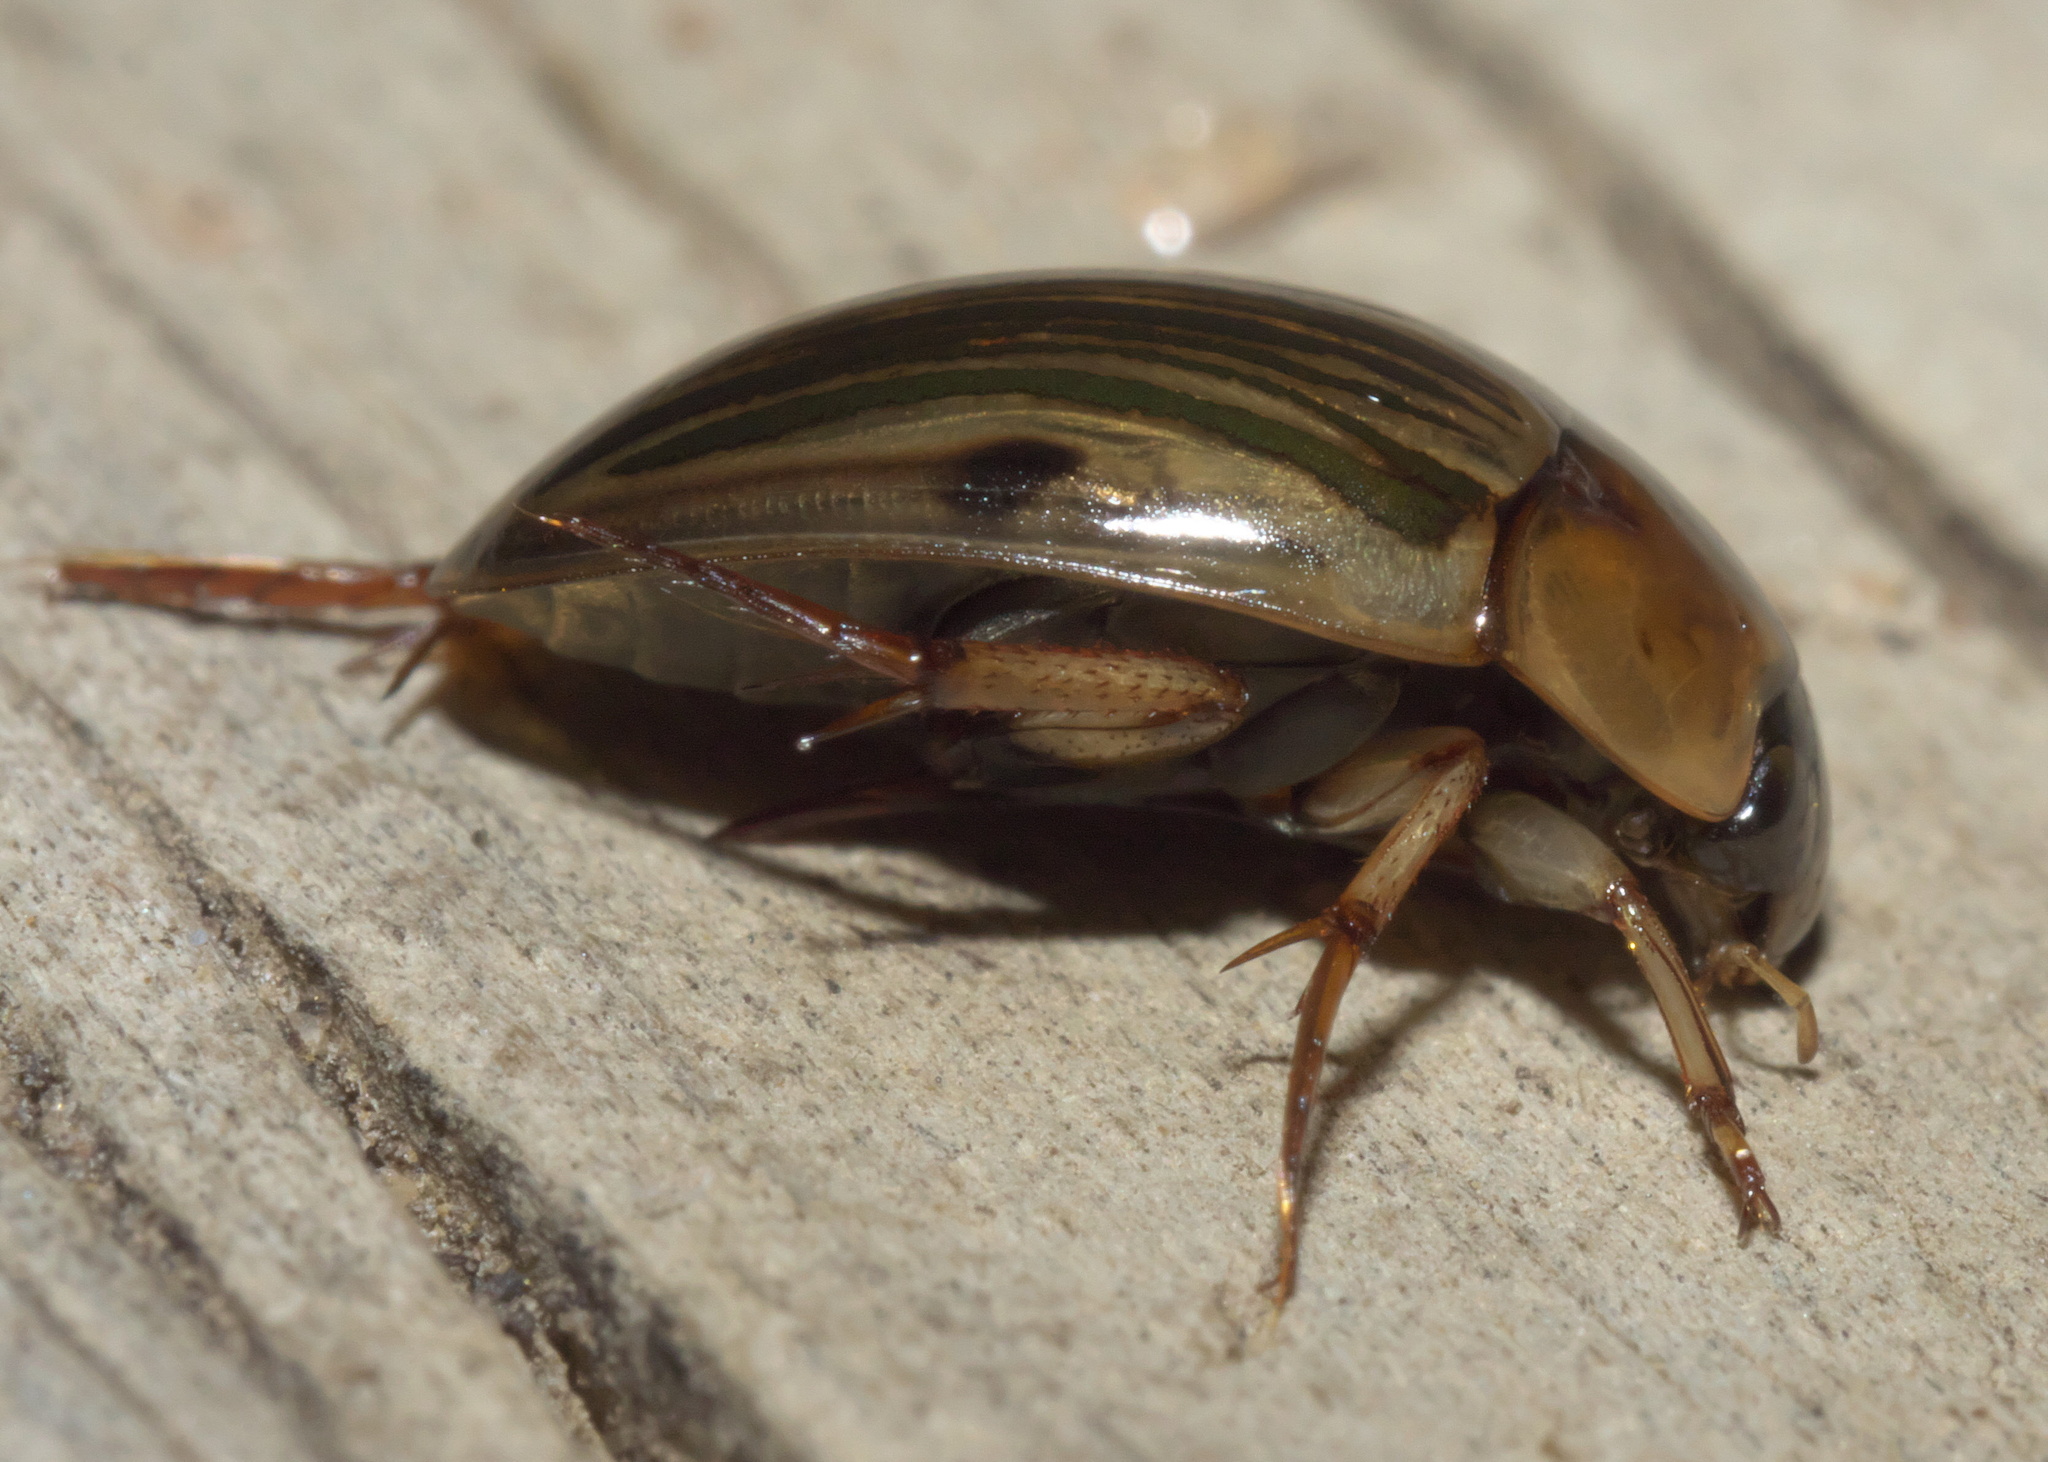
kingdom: Animalia
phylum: Arthropoda
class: Insecta
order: Coleoptera
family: Hydrophilidae
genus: Tropisternus
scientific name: Tropisternus collaris
